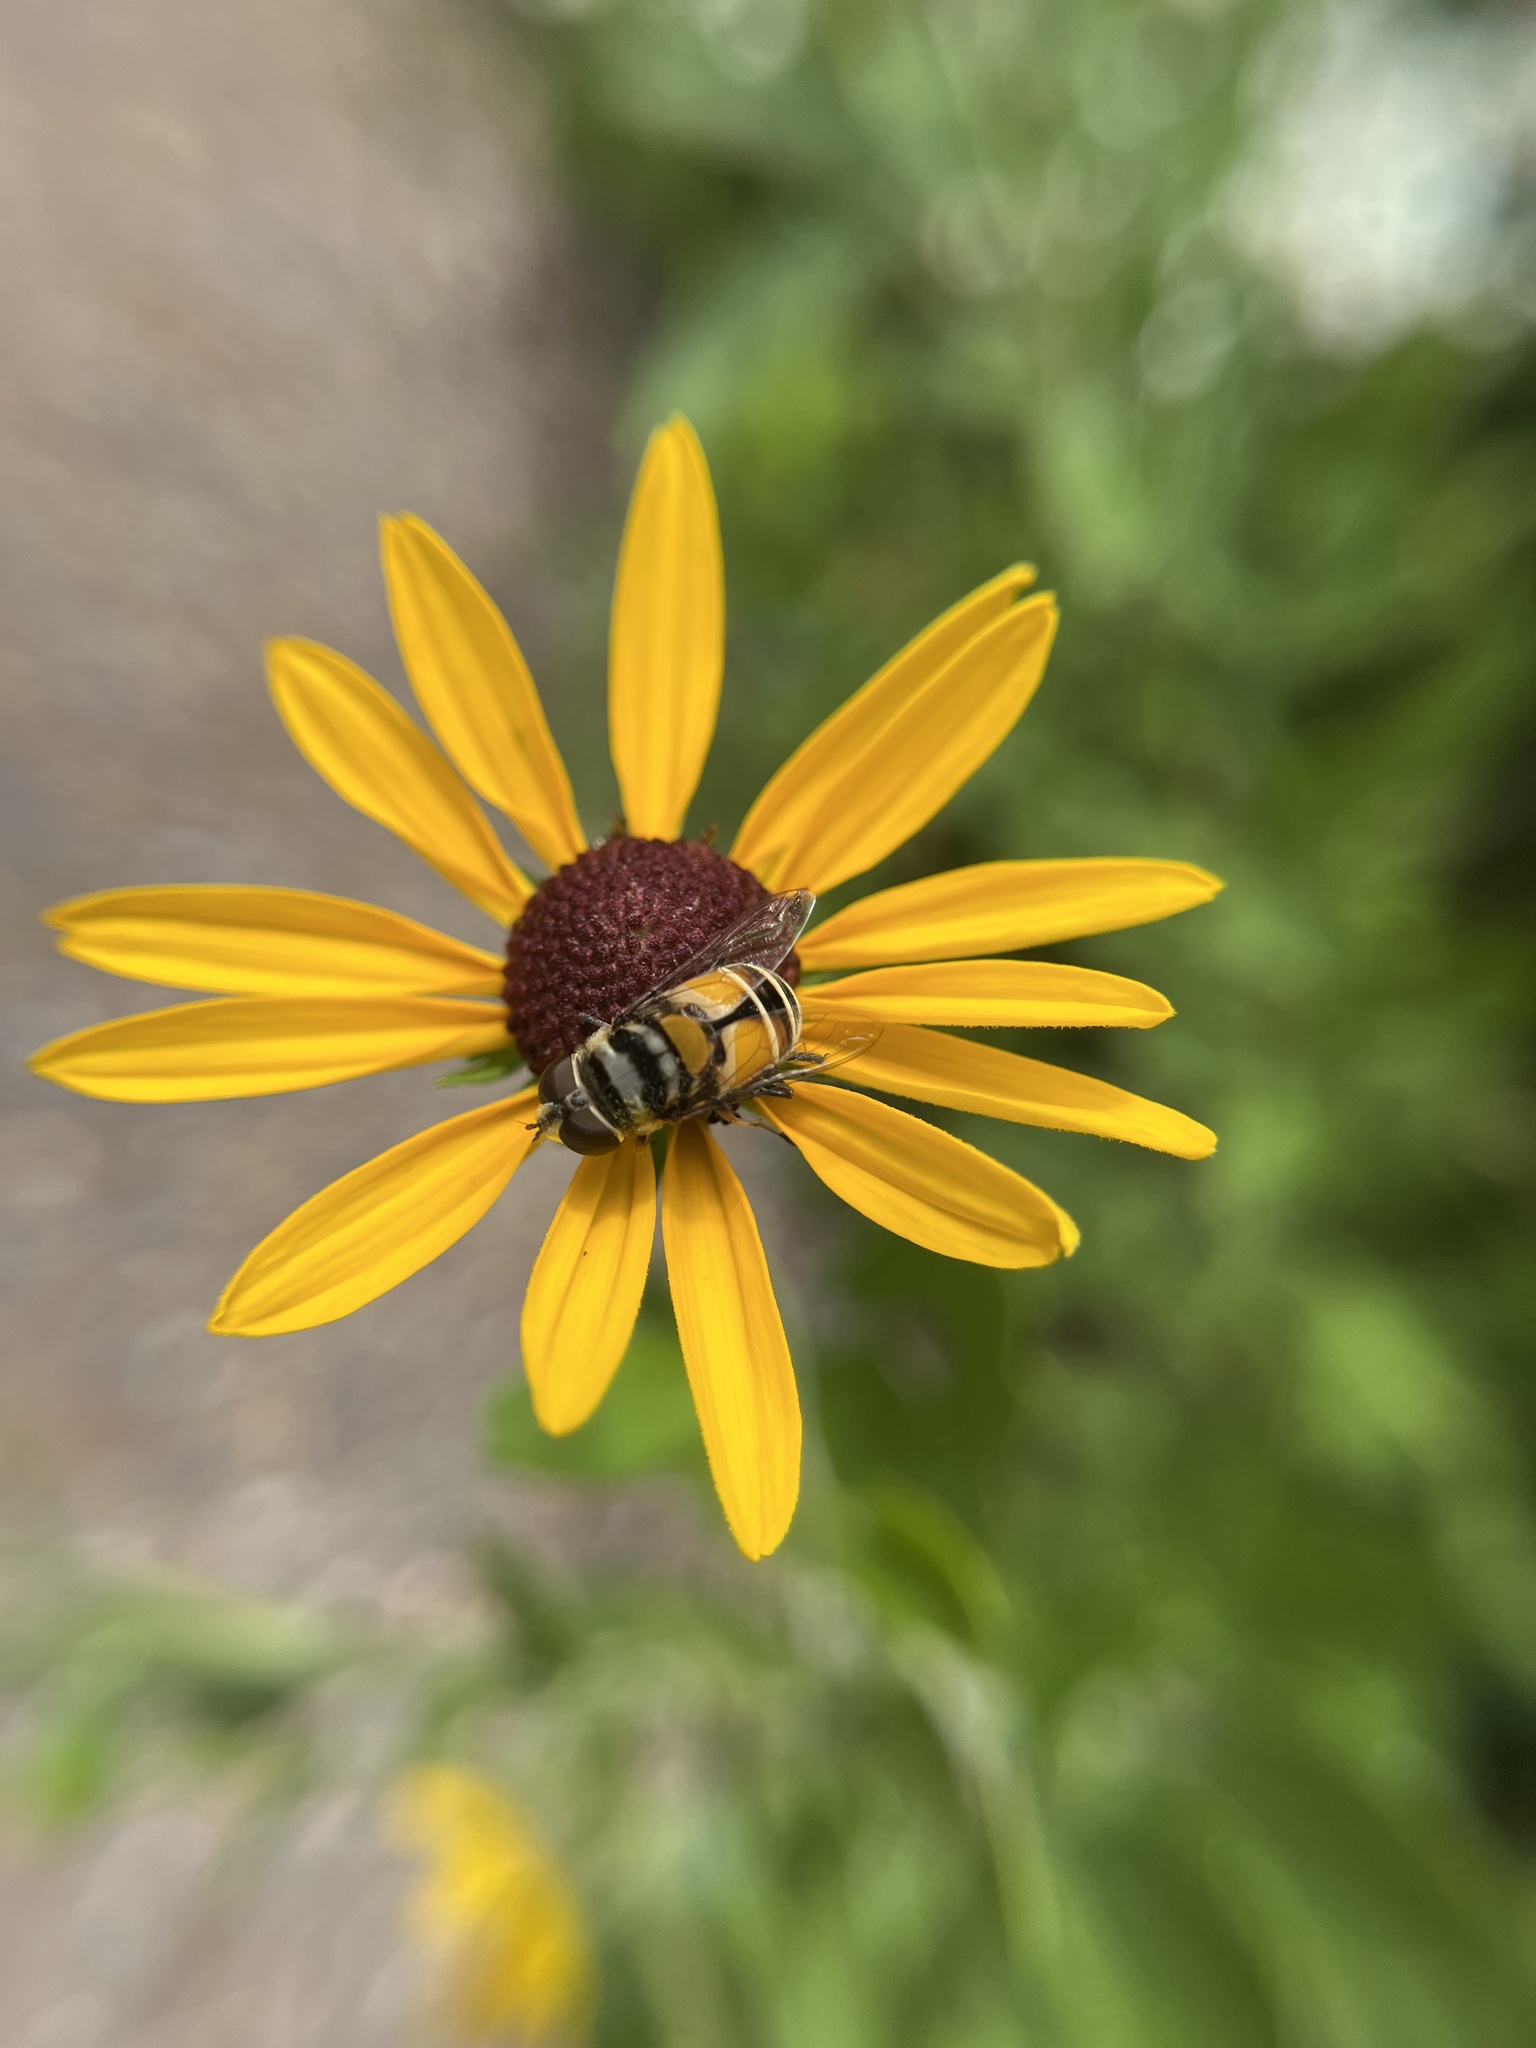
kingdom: Animalia
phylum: Arthropoda
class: Insecta
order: Diptera
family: Syrphidae
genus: Palpada
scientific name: Palpada albifrons
